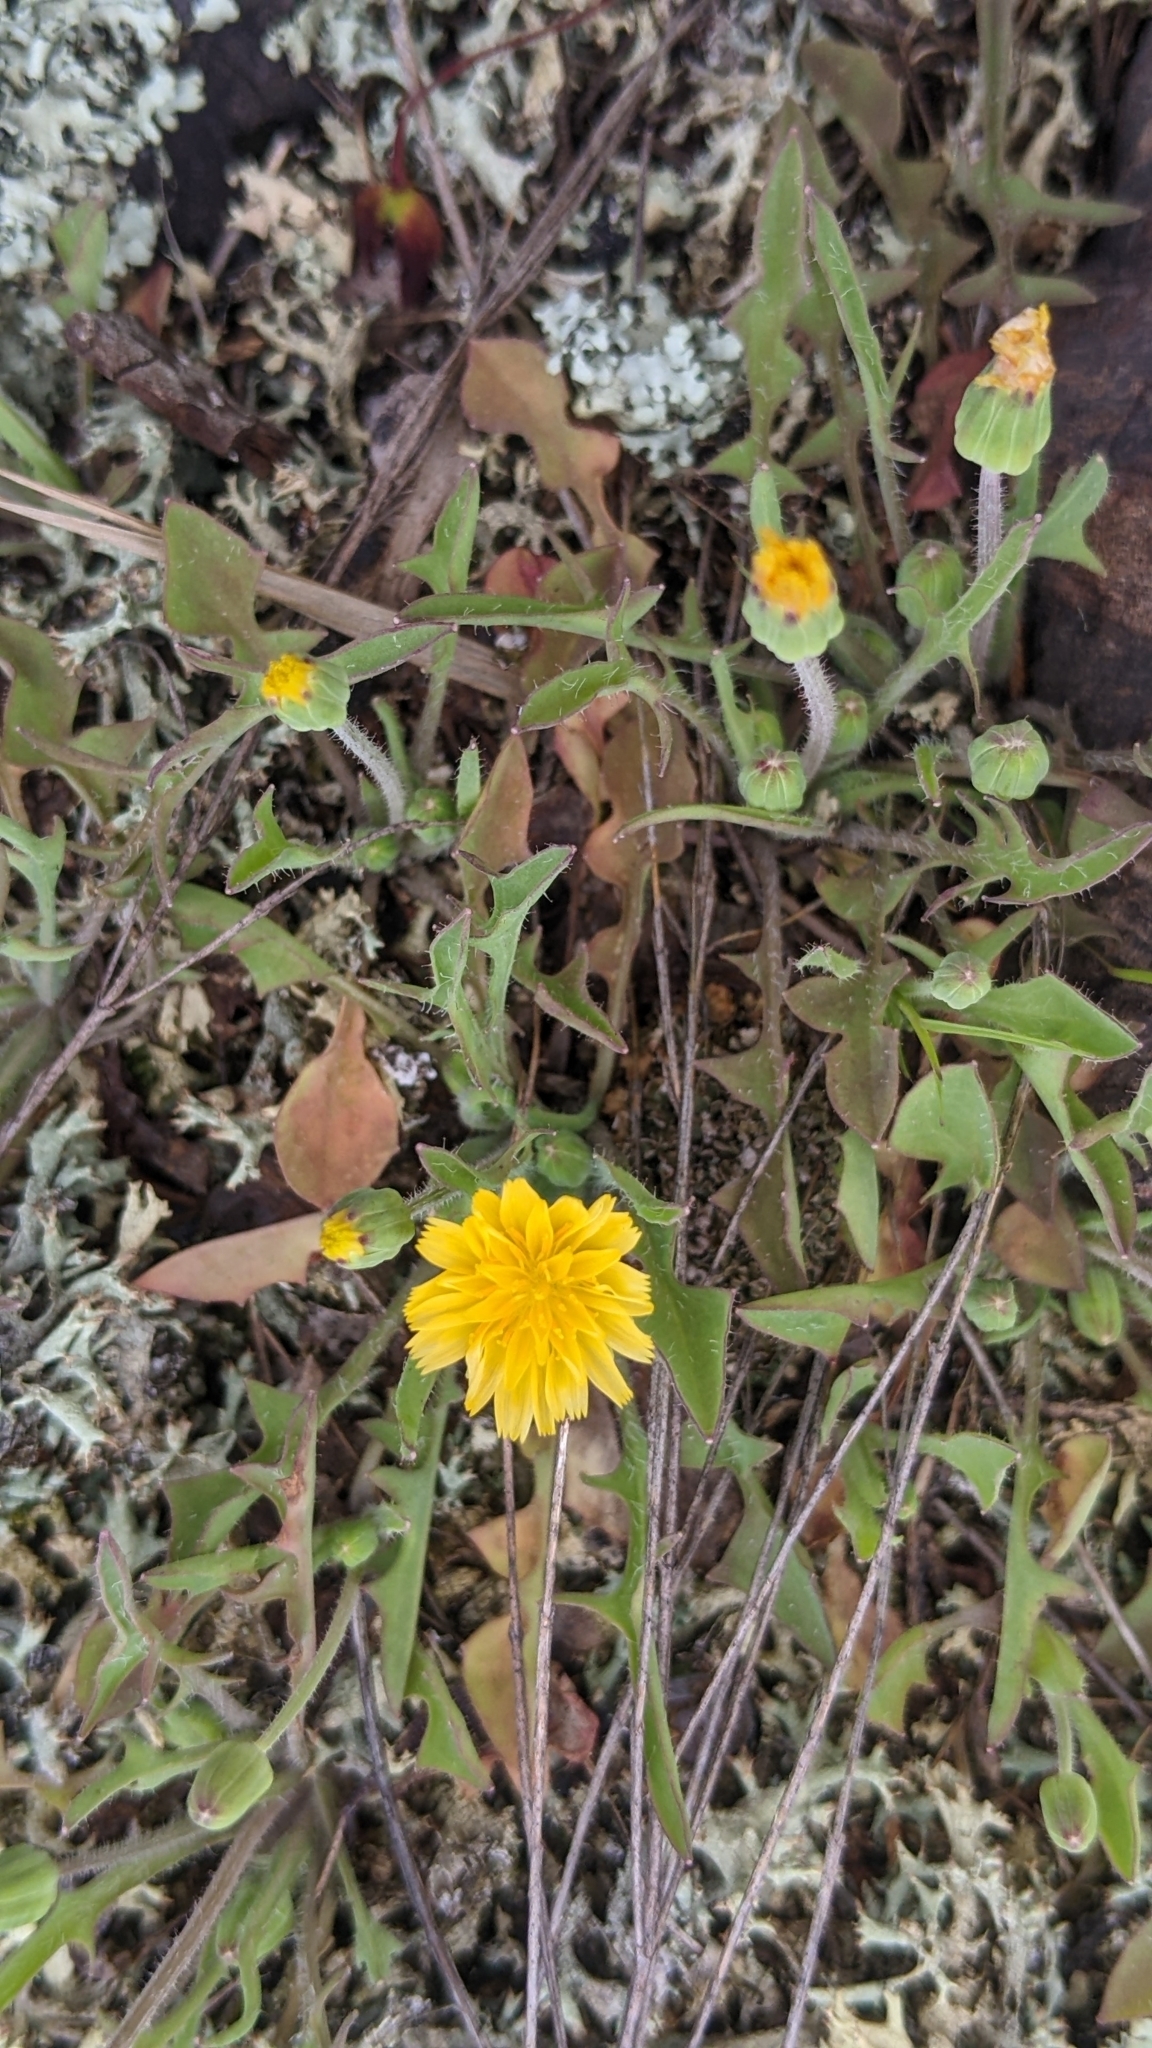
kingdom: Plantae
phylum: Tracheophyta
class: Magnoliopsida
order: Asterales
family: Asteraceae
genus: Krigia
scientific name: Krigia virginica
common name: Virginia dwarf-dandelion
